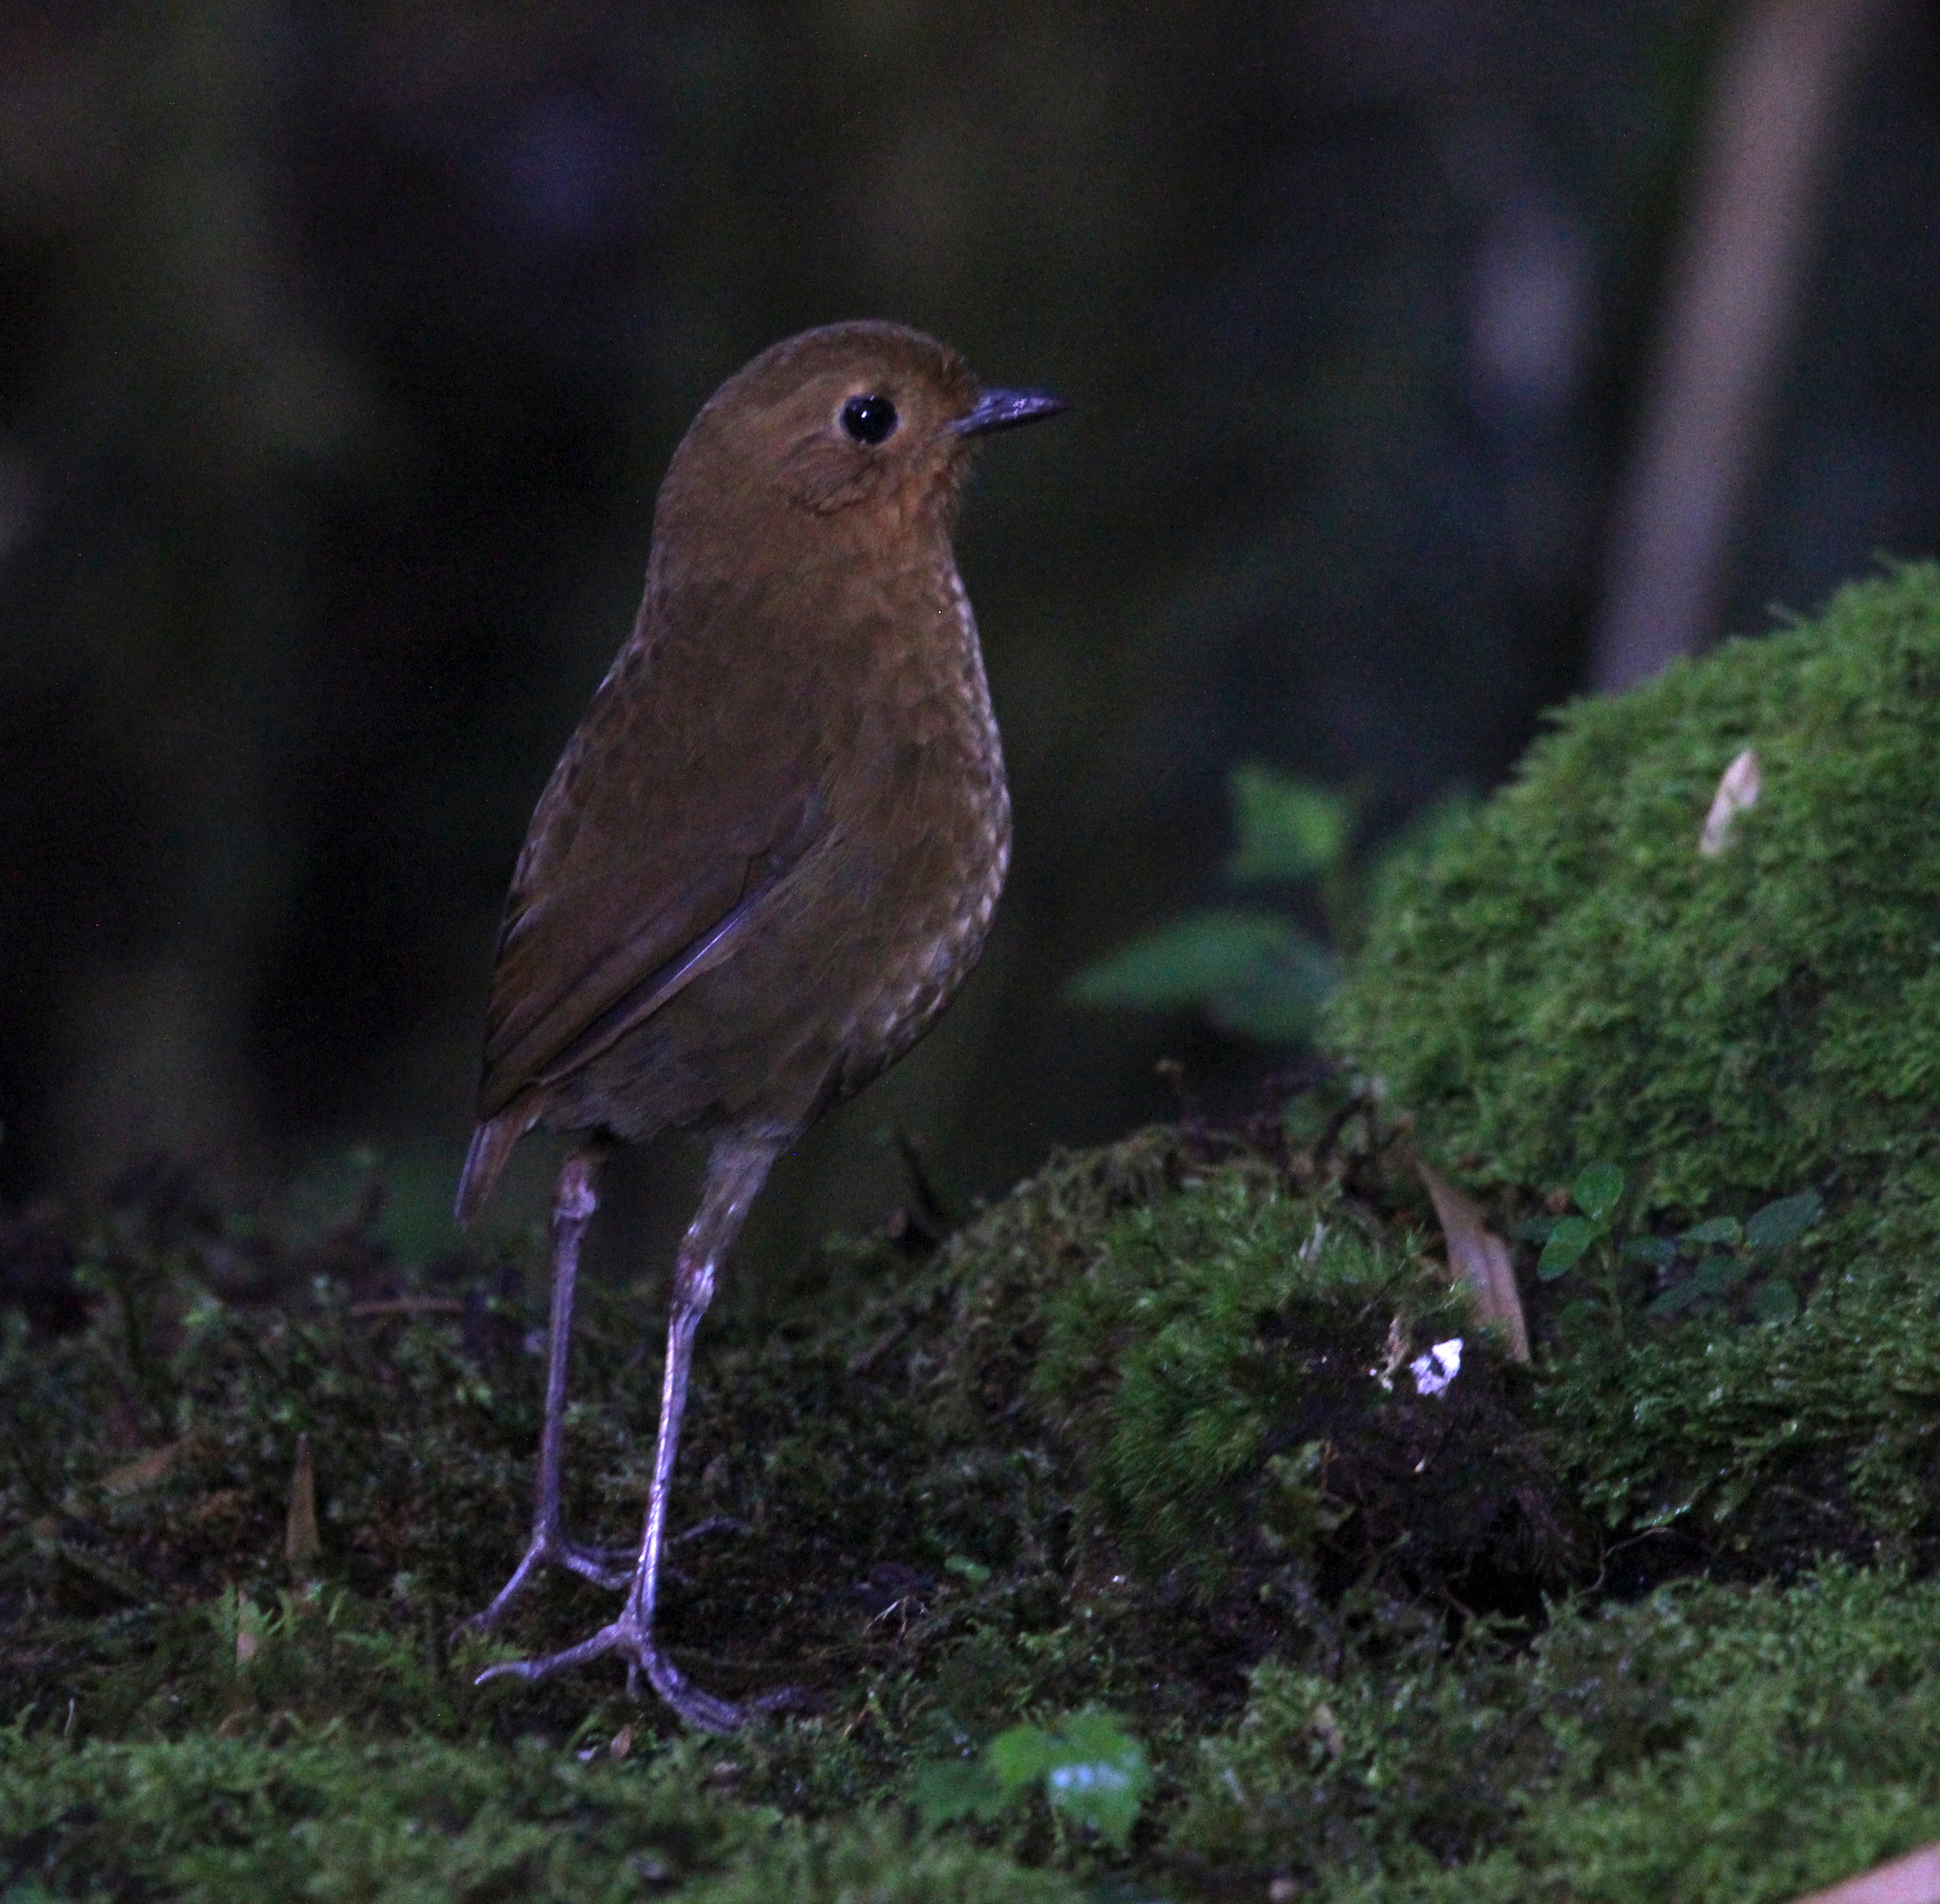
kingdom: Animalia
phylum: Chordata
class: Aves
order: Passeriformes
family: Grallariidae
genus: Grallaria
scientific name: Grallaria saturata
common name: Equatorial antpitta
